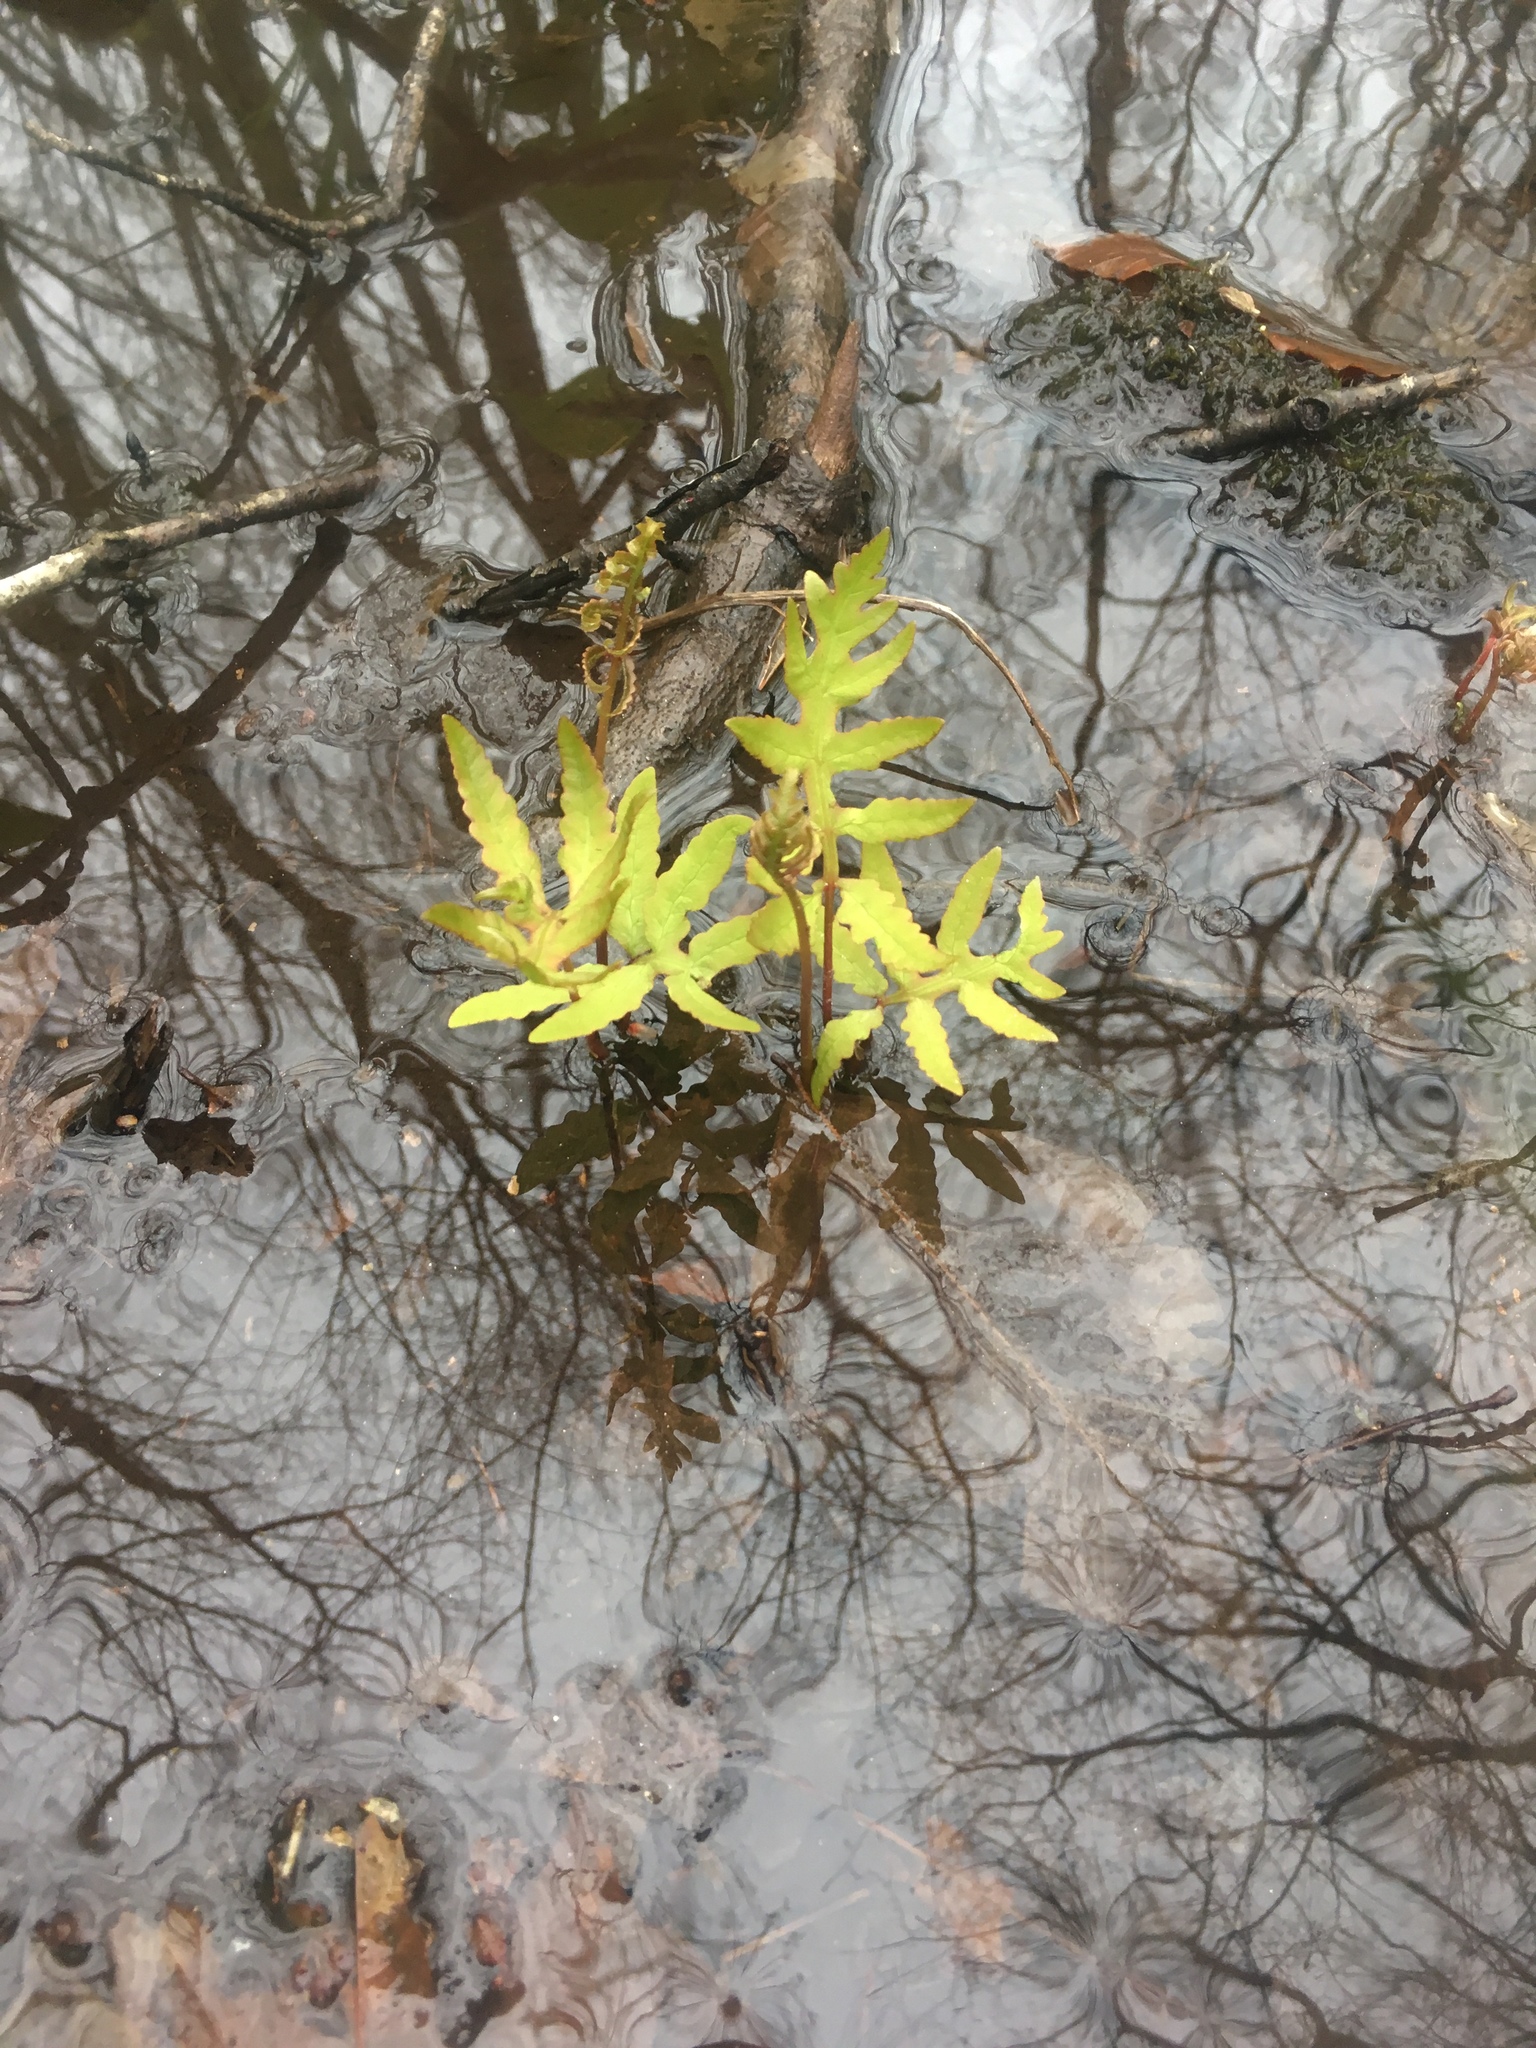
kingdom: Plantae
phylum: Tracheophyta
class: Polypodiopsida
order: Polypodiales
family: Onocleaceae
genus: Onoclea
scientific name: Onoclea sensibilis
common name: Sensitive fern
